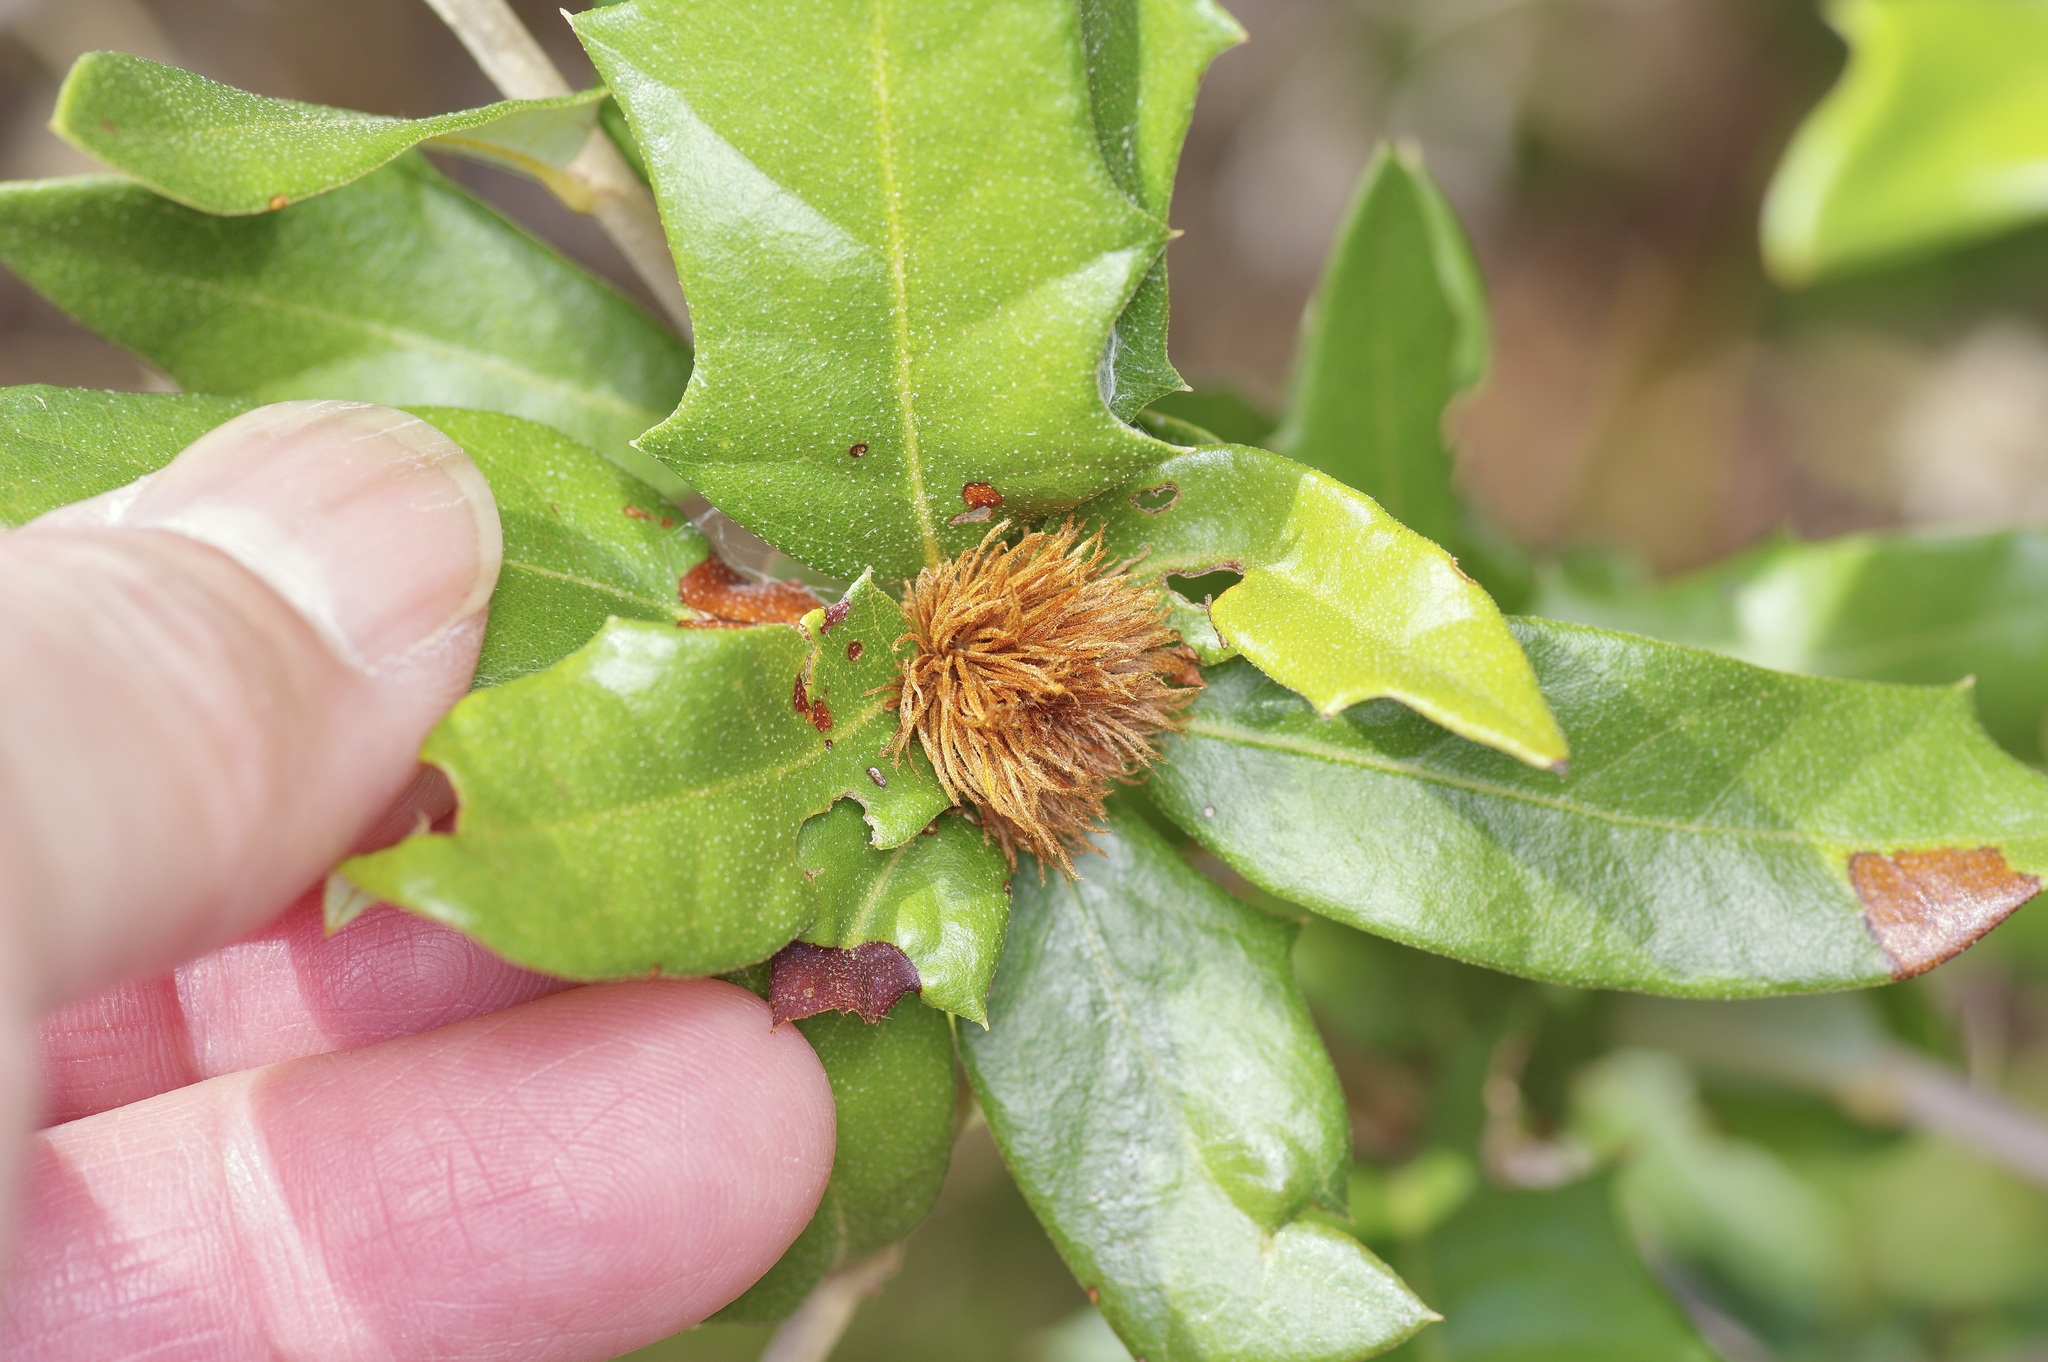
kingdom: Animalia
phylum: Arthropoda
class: Insecta
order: Hymenoptera
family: Cynipidae
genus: Andricus
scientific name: Andricus quercusfoliatus
